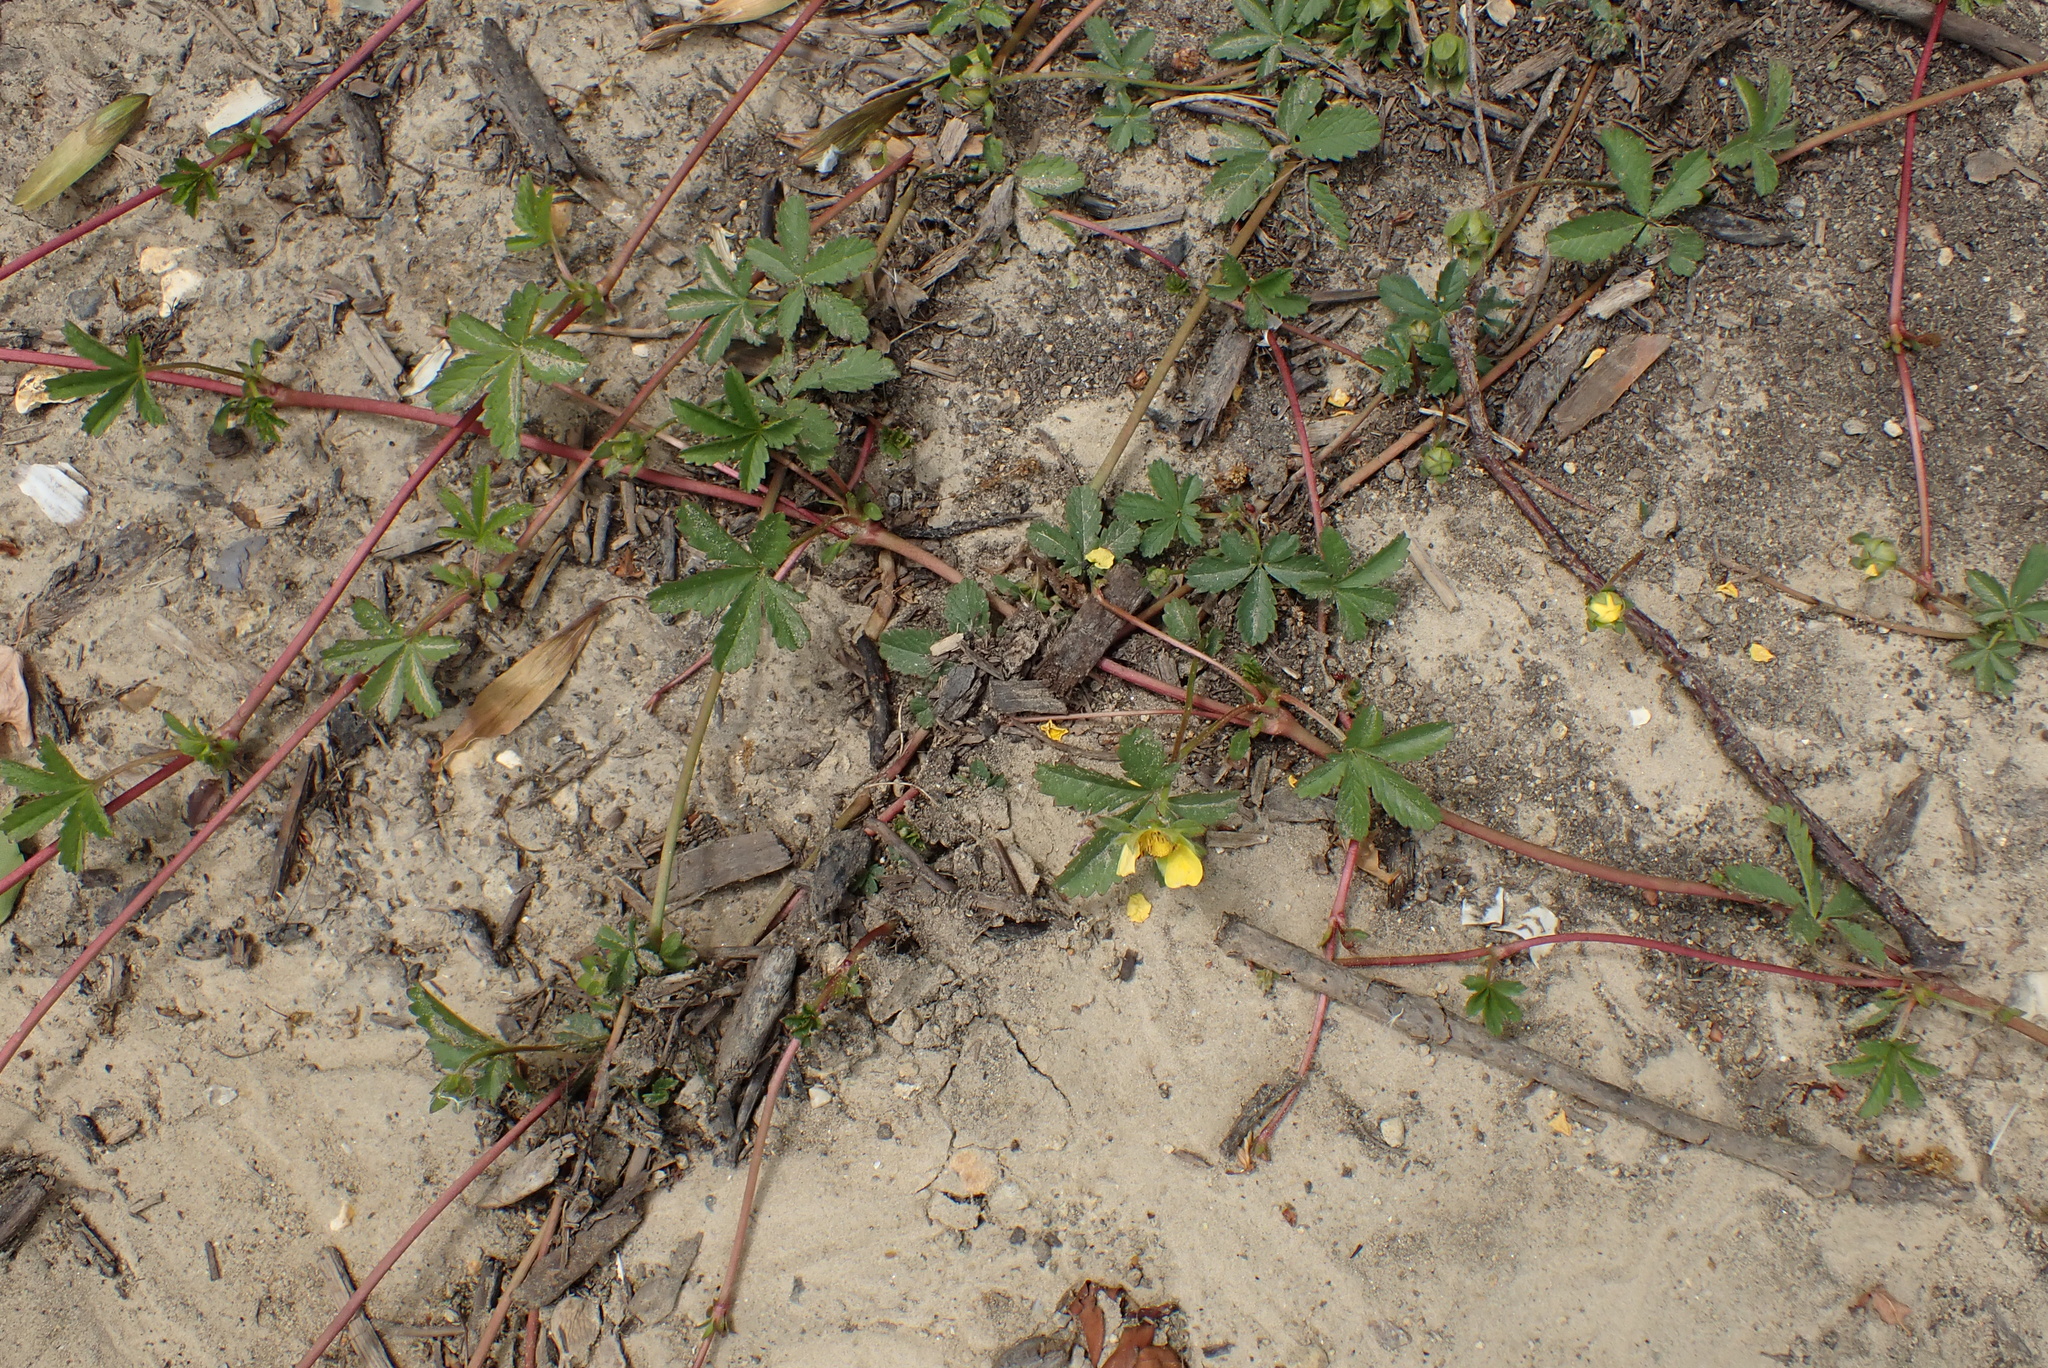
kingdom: Plantae
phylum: Tracheophyta
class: Magnoliopsida
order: Rosales
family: Rosaceae
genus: Potentilla
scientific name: Potentilla reptans
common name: Creeping cinquefoil
